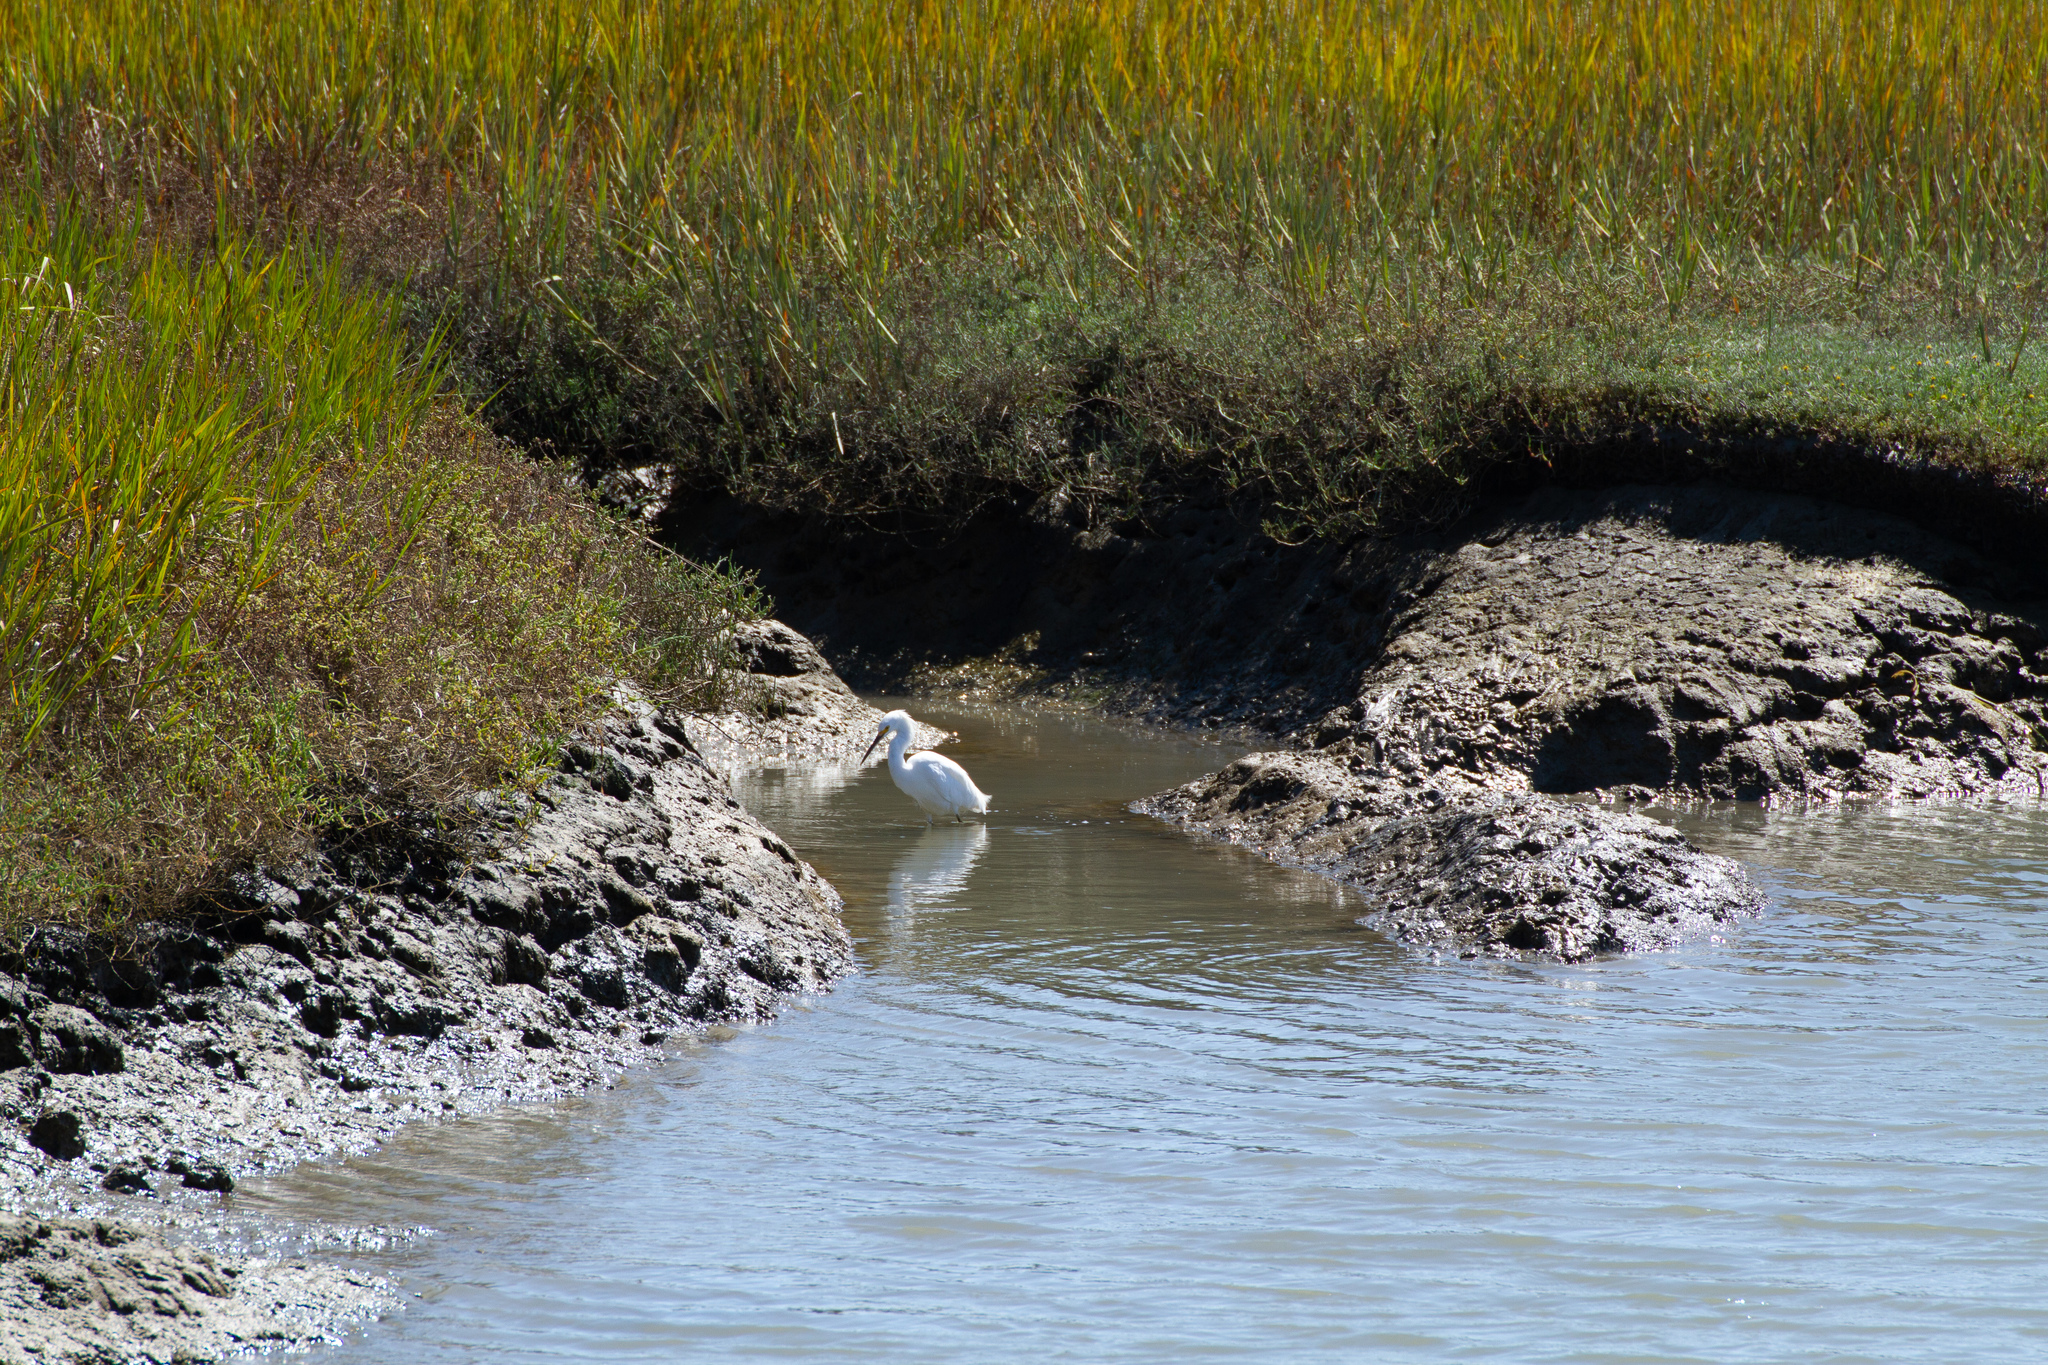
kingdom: Animalia
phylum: Chordata
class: Aves
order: Pelecaniformes
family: Ardeidae
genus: Egretta
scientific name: Egretta thula
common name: Snowy egret
